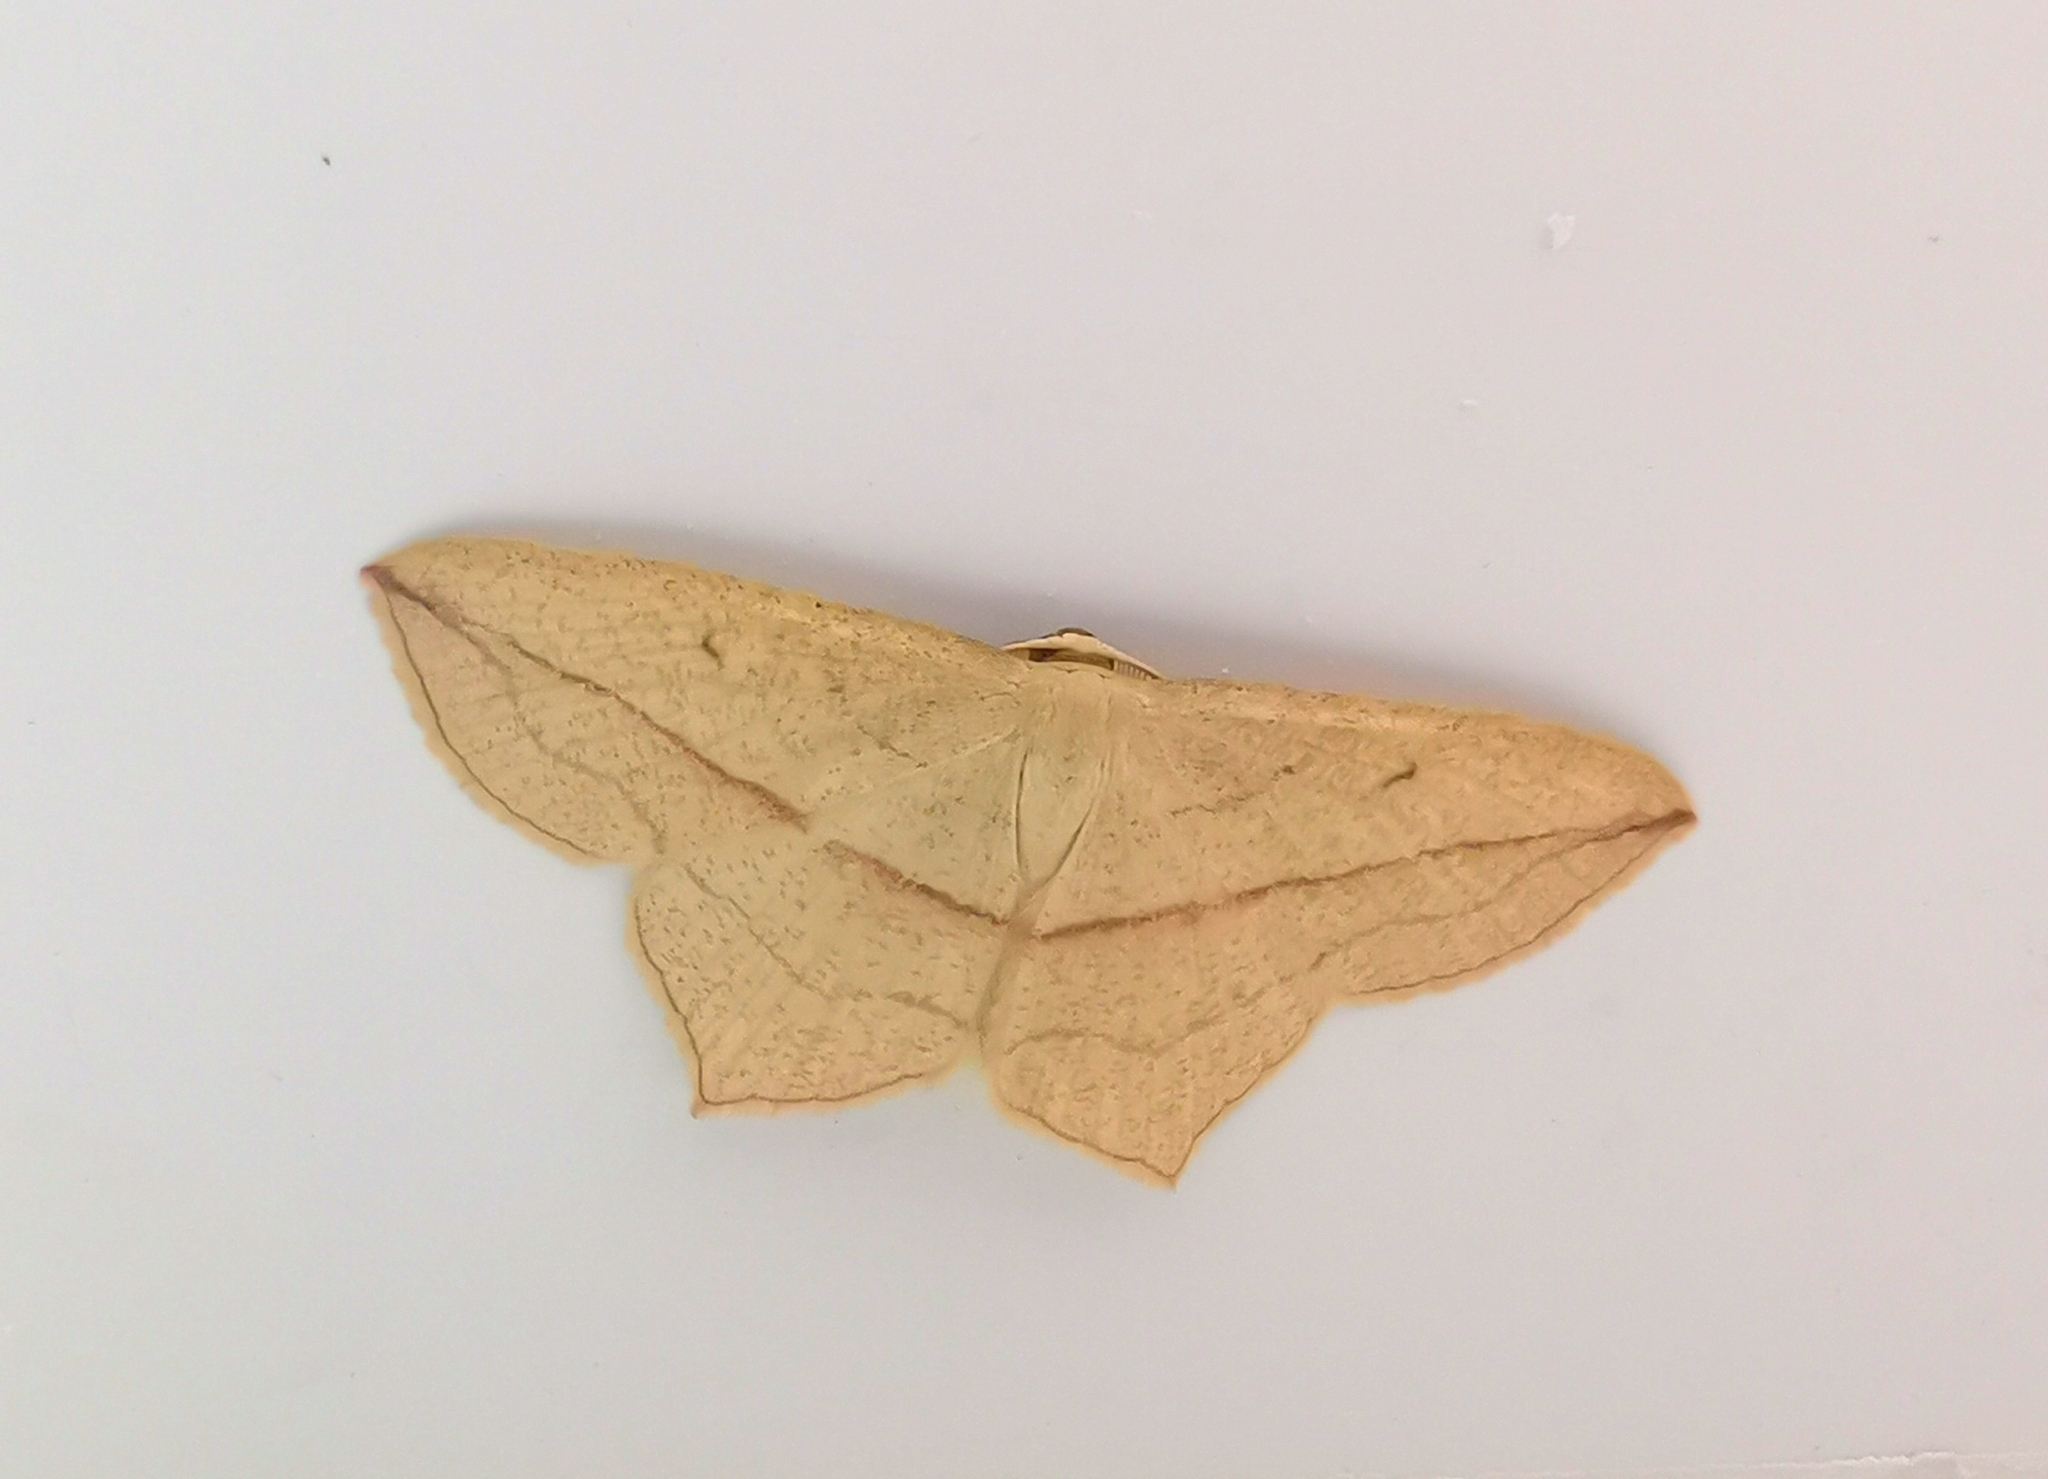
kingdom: Animalia
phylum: Arthropoda
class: Insecta
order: Lepidoptera
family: Geometridae
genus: Timandra
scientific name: Timandra comae
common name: Blood-vein
